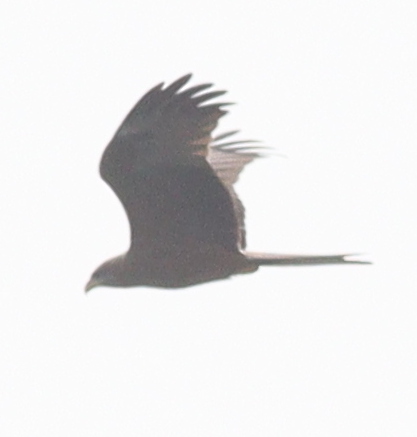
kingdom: Animalia
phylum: Chordata
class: Aves
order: Accipitriformes
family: Accipitridae
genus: Milvus
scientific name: Milvus migrans
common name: Black kite
